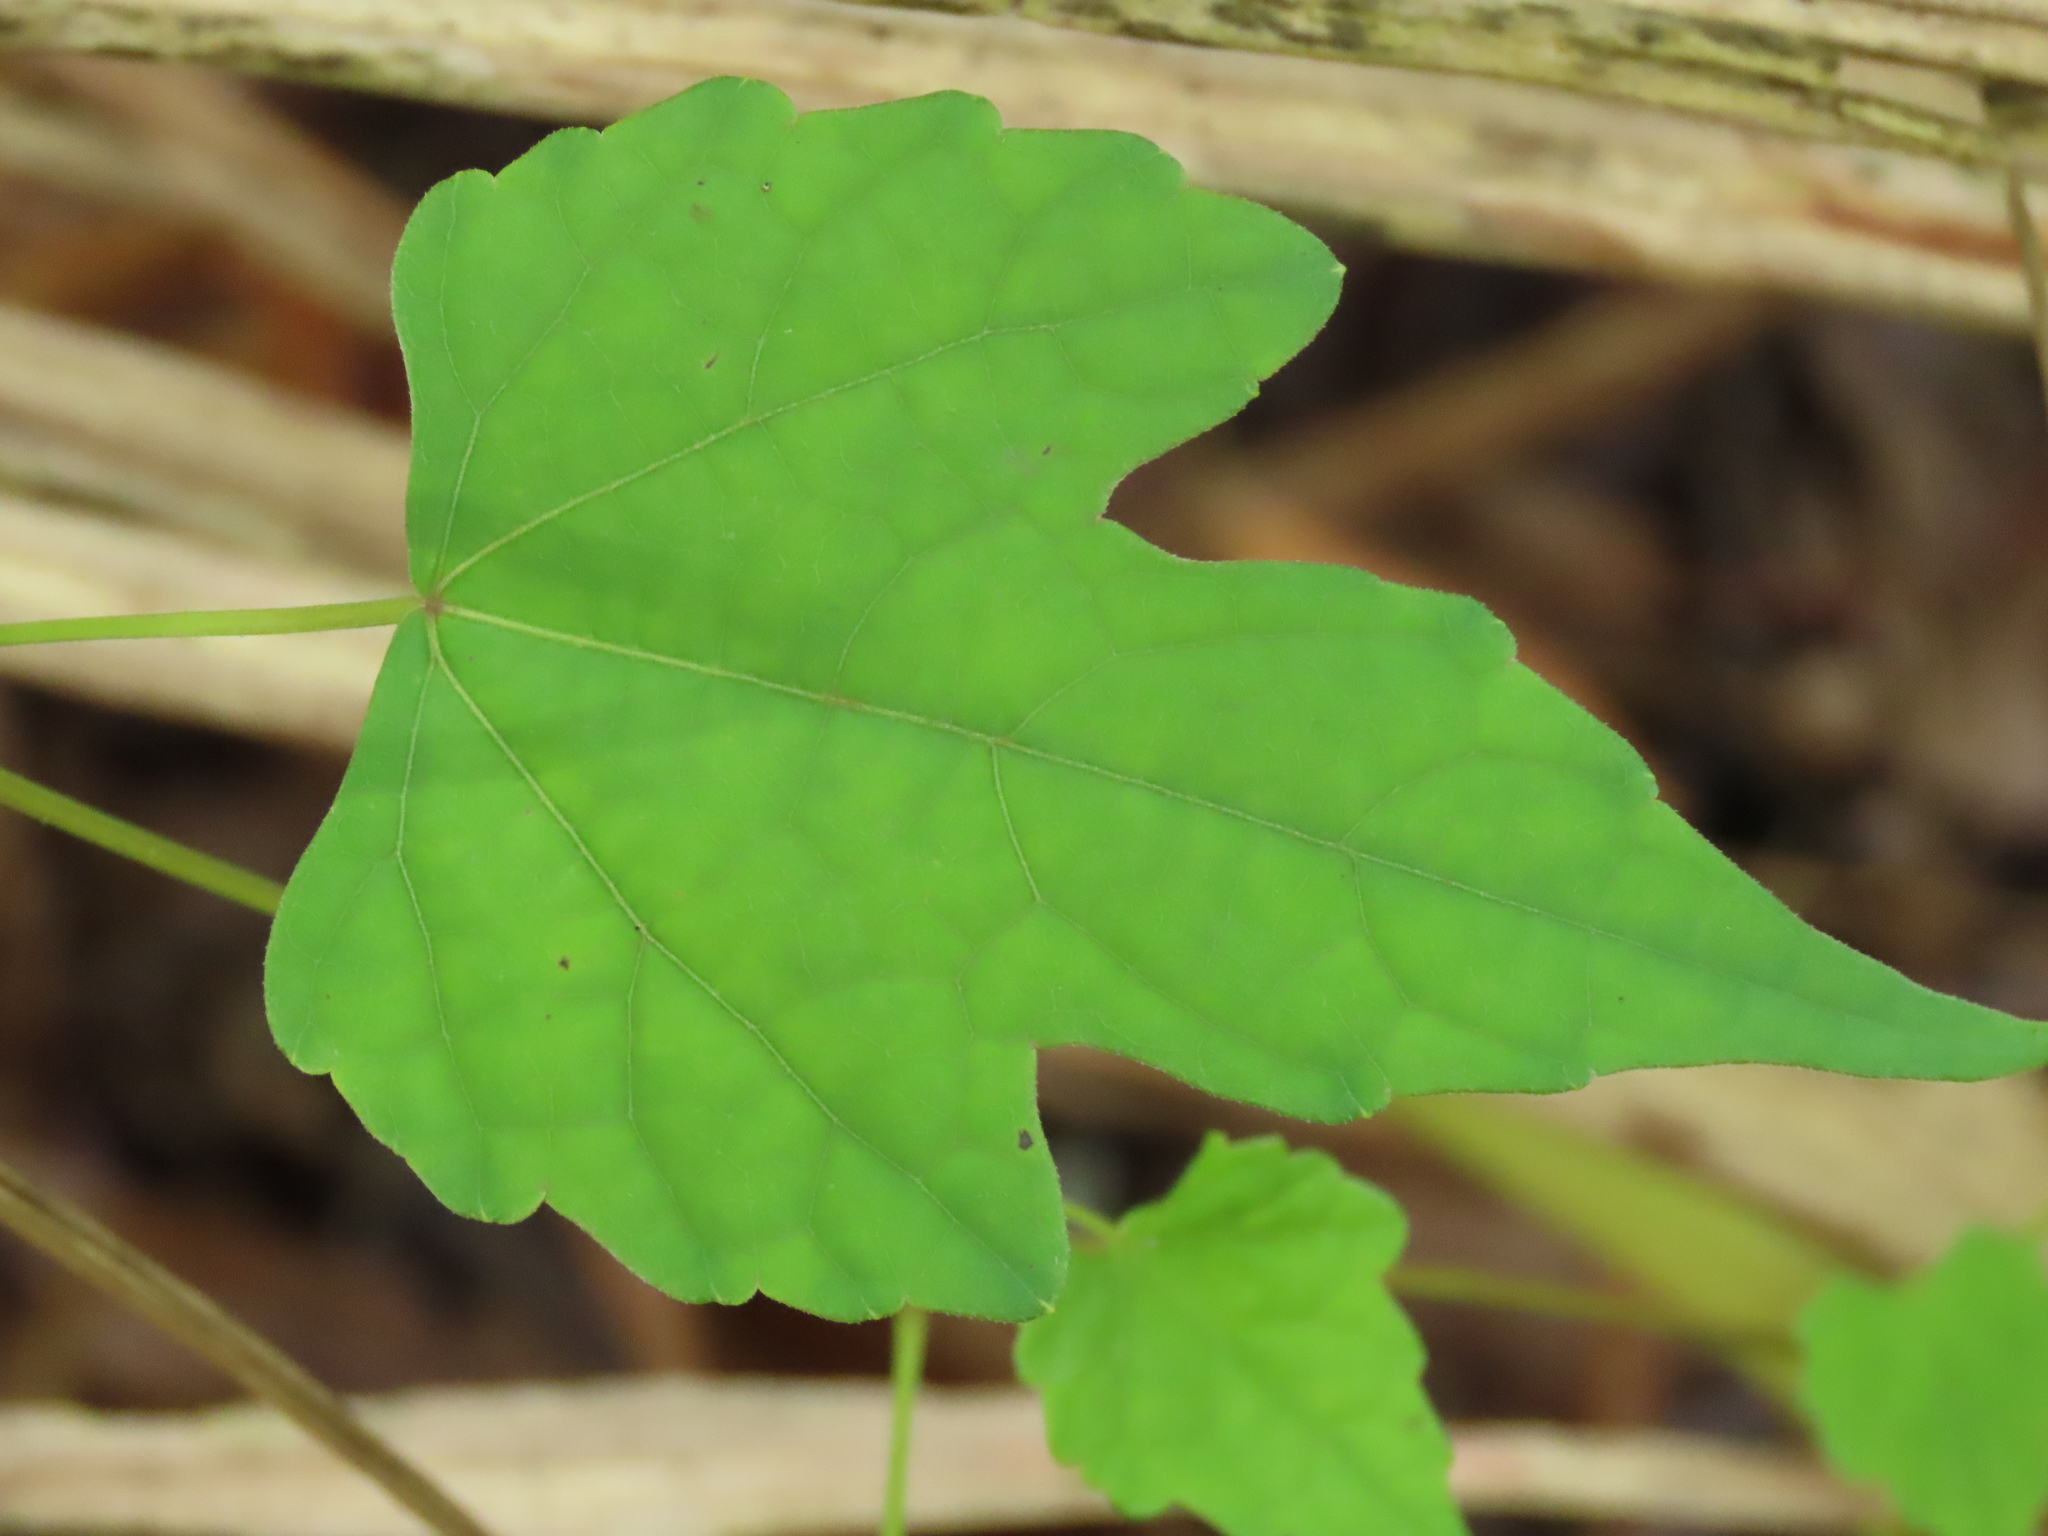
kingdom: Plantae
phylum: Tracheophyta
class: Magnoliopsida
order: Vitales
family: Vitaceae
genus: Ampelopsis
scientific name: Ampelopsis glandulosa
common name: Amur peppervine
